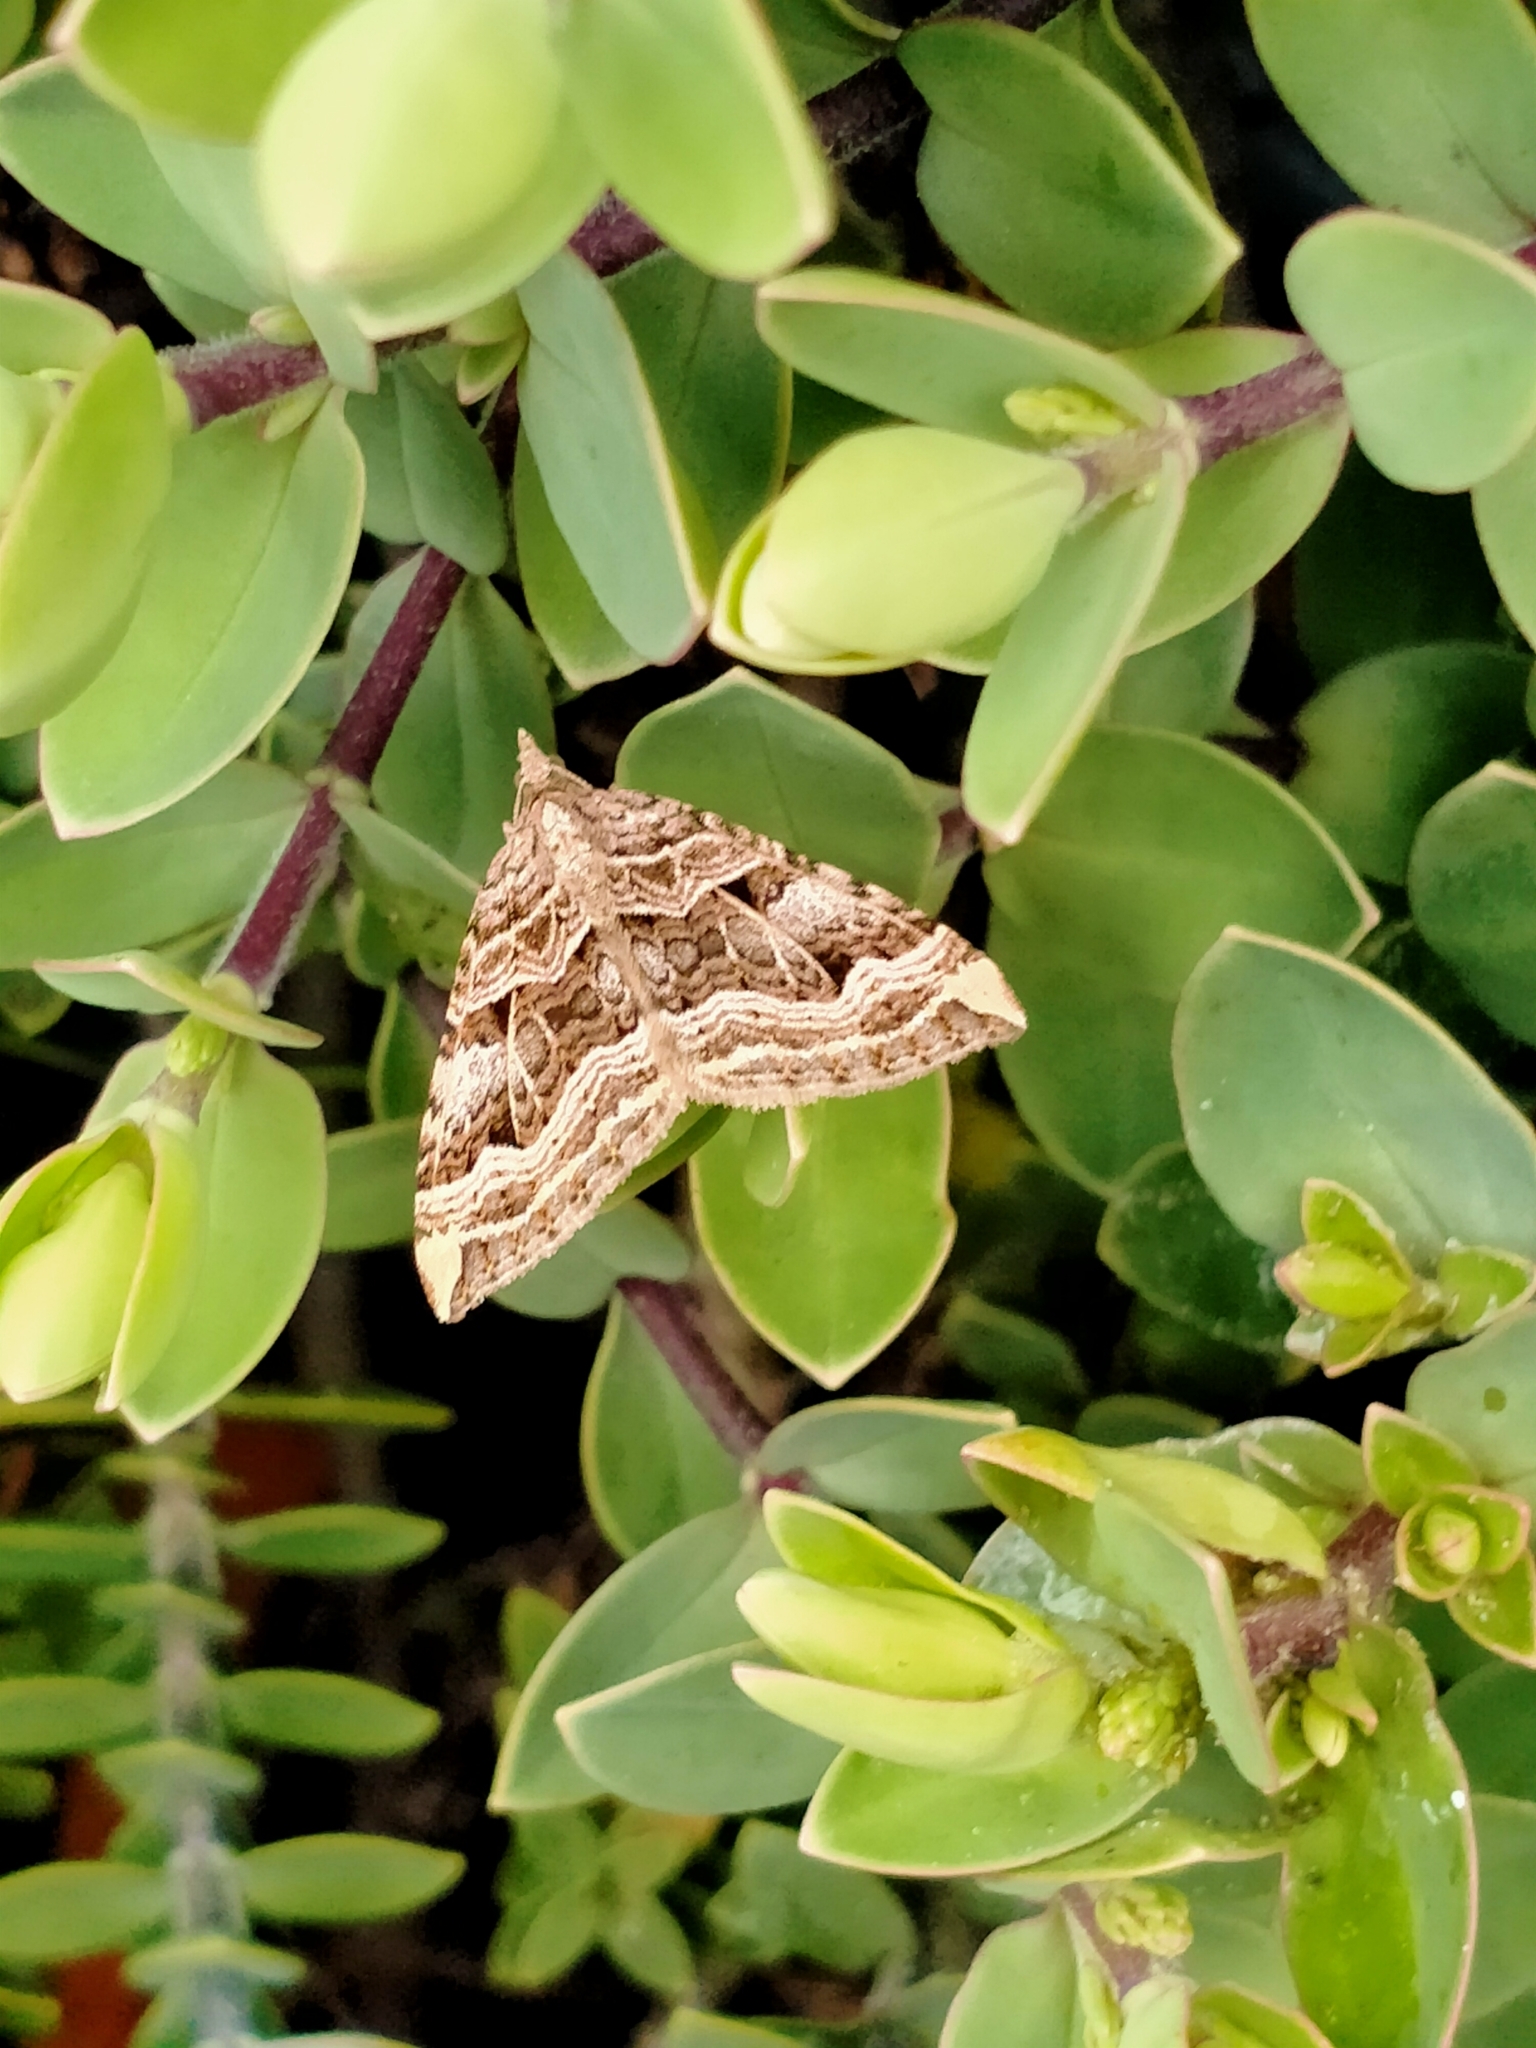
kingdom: Animalia
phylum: Arthropoda
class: Insecta
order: Lepidoptera
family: Geometridae
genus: Xanthorhoe
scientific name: Xanthorhoe semifissata
